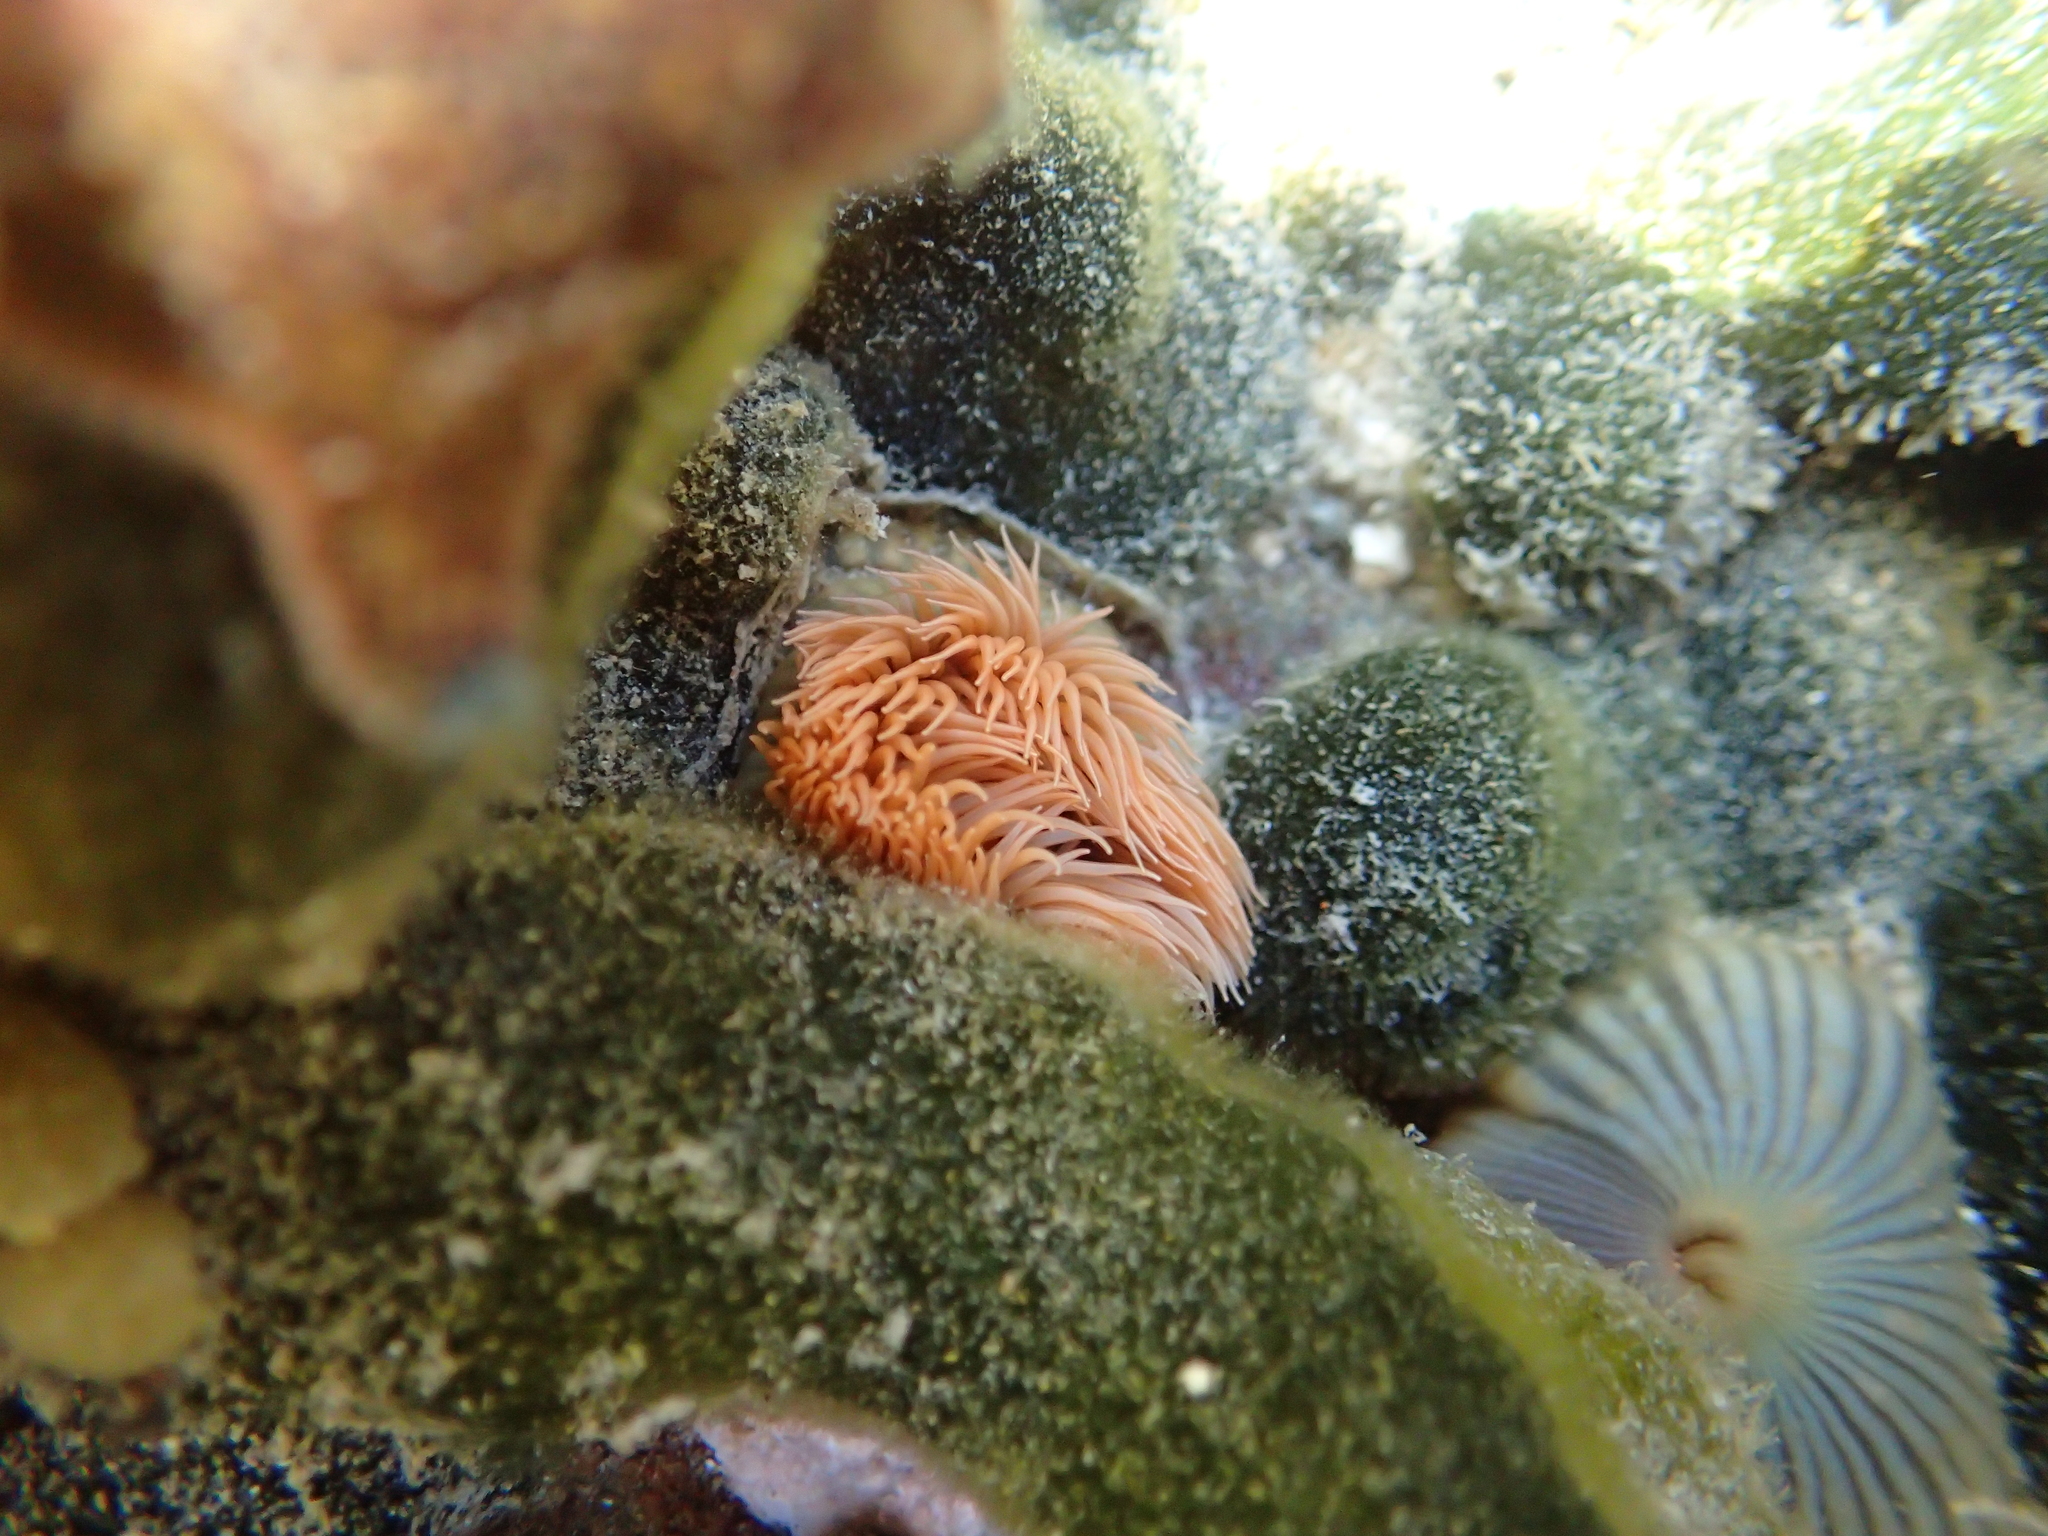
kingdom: Animalia
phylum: Cnidaria
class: Anthozoa
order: Actiniaria
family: Diadumenidae
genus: Diadumene
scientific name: Diadumene neozelanica
